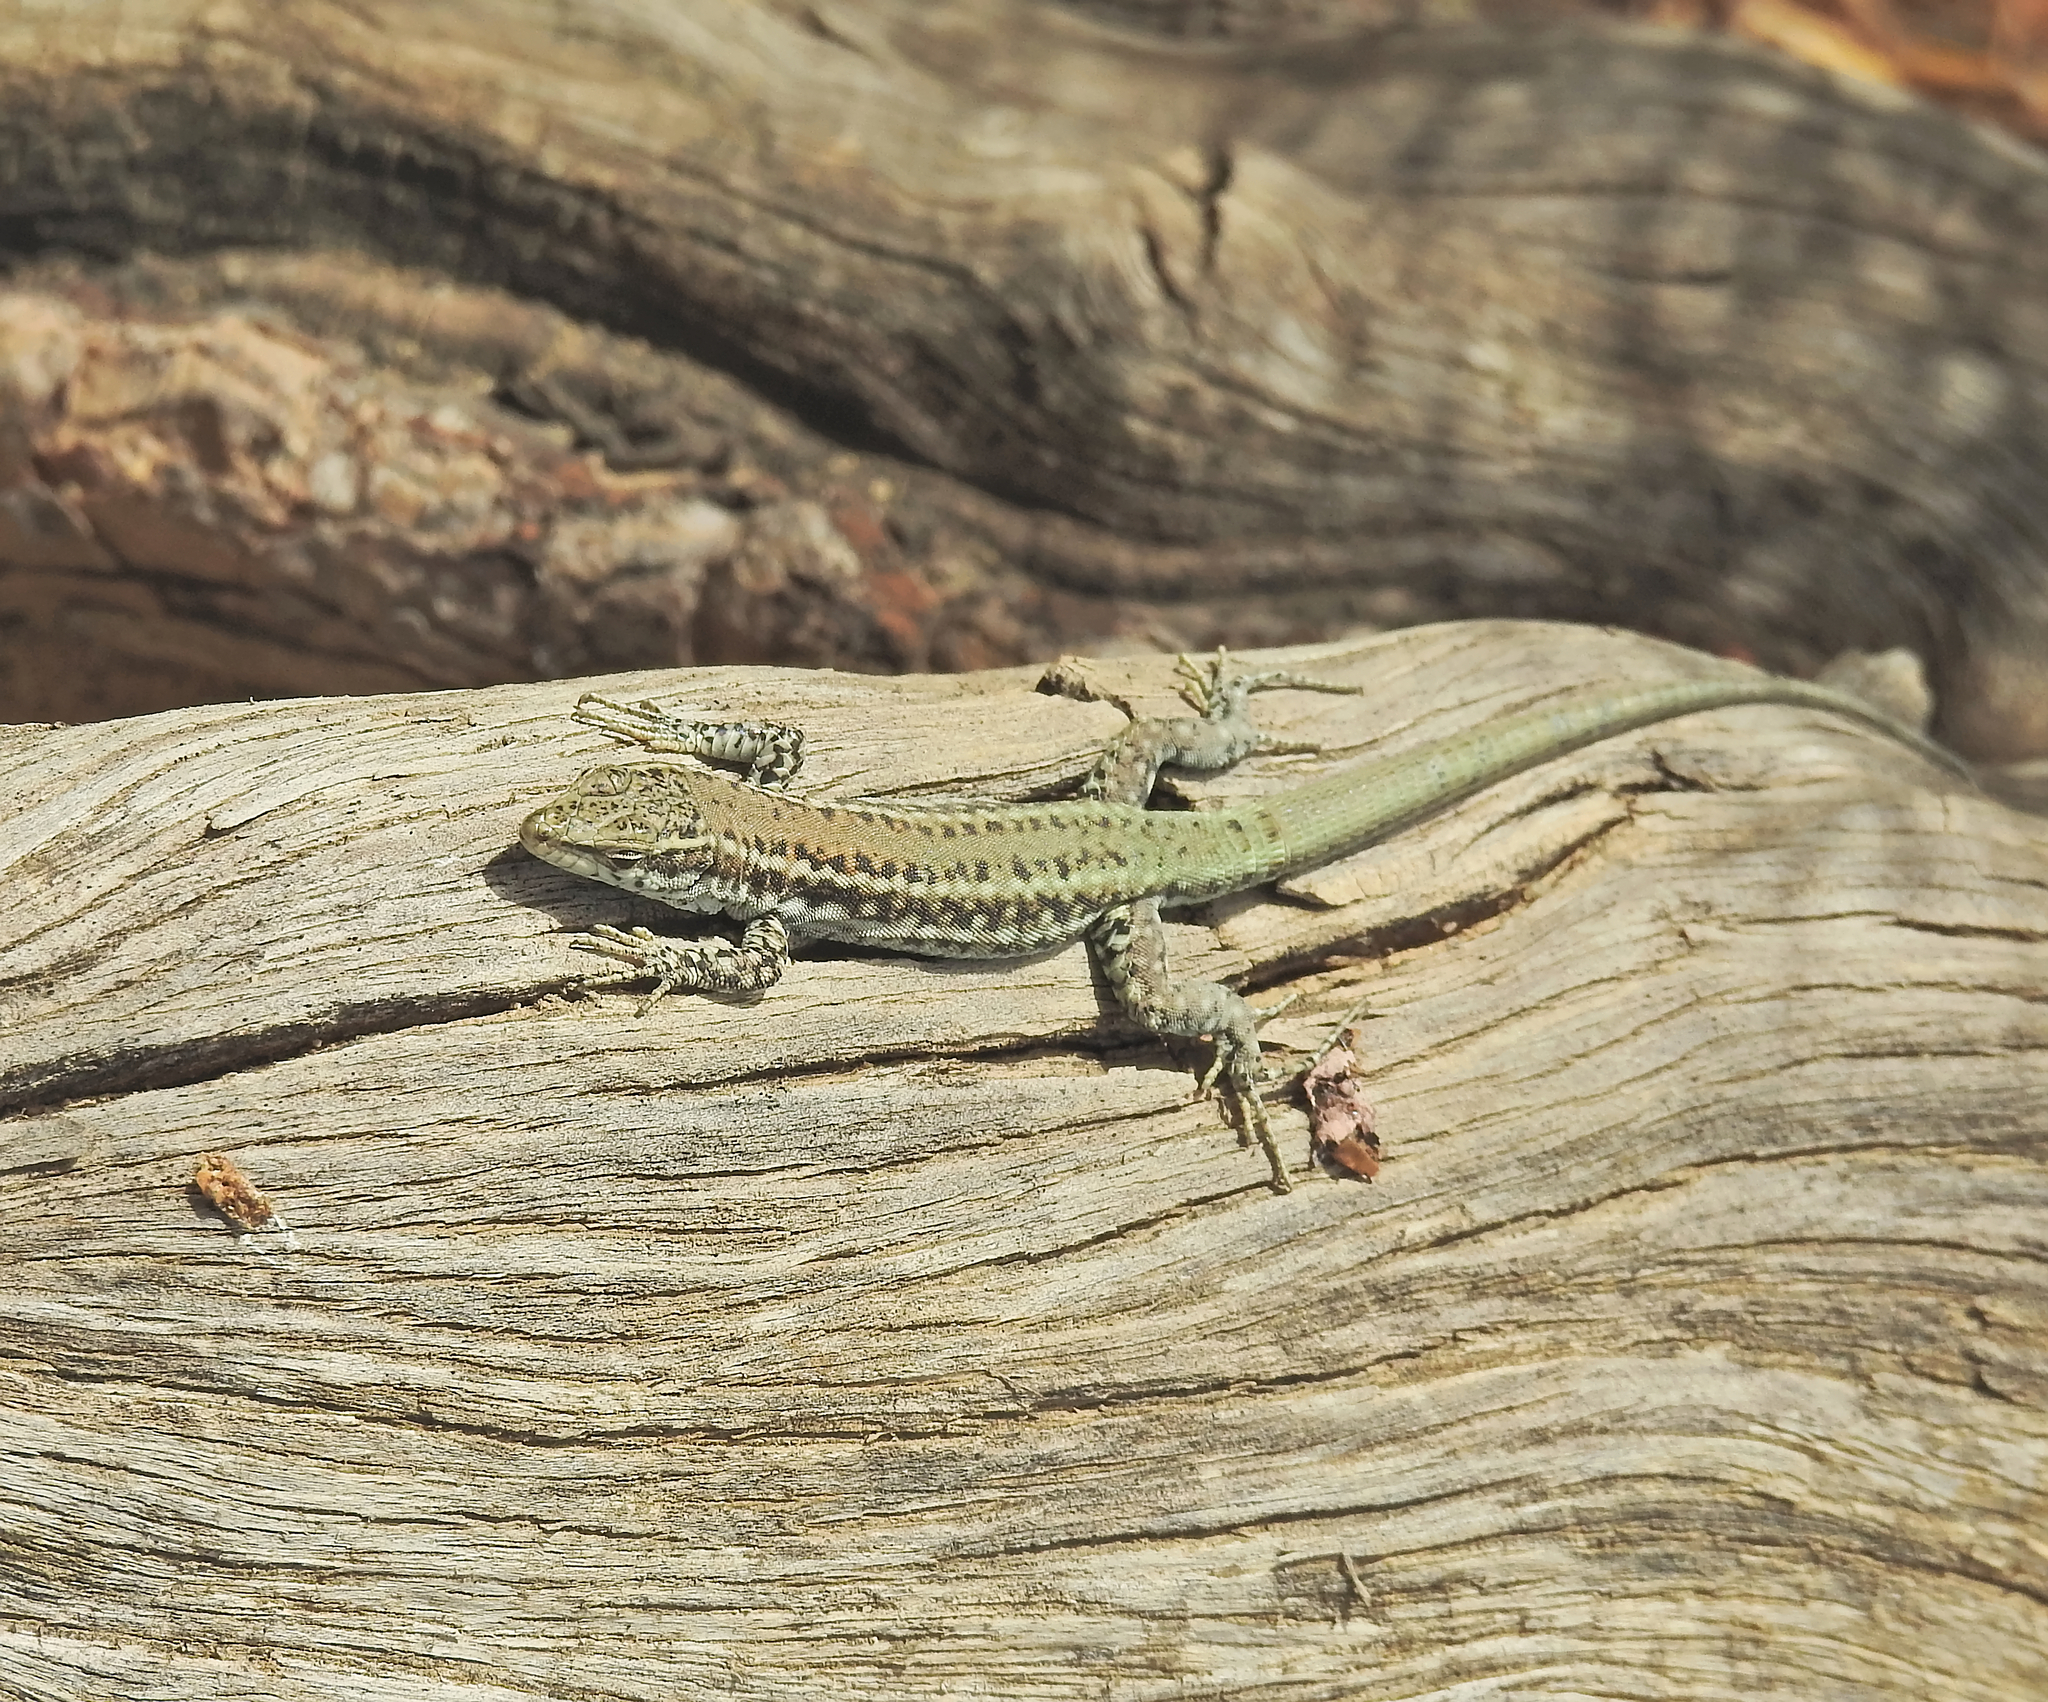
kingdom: Animalia
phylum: Chordata
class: Squamata
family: Lacertidae
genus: Podarcis
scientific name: Podarcis vaucheri
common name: Vaucher's wall lizard
